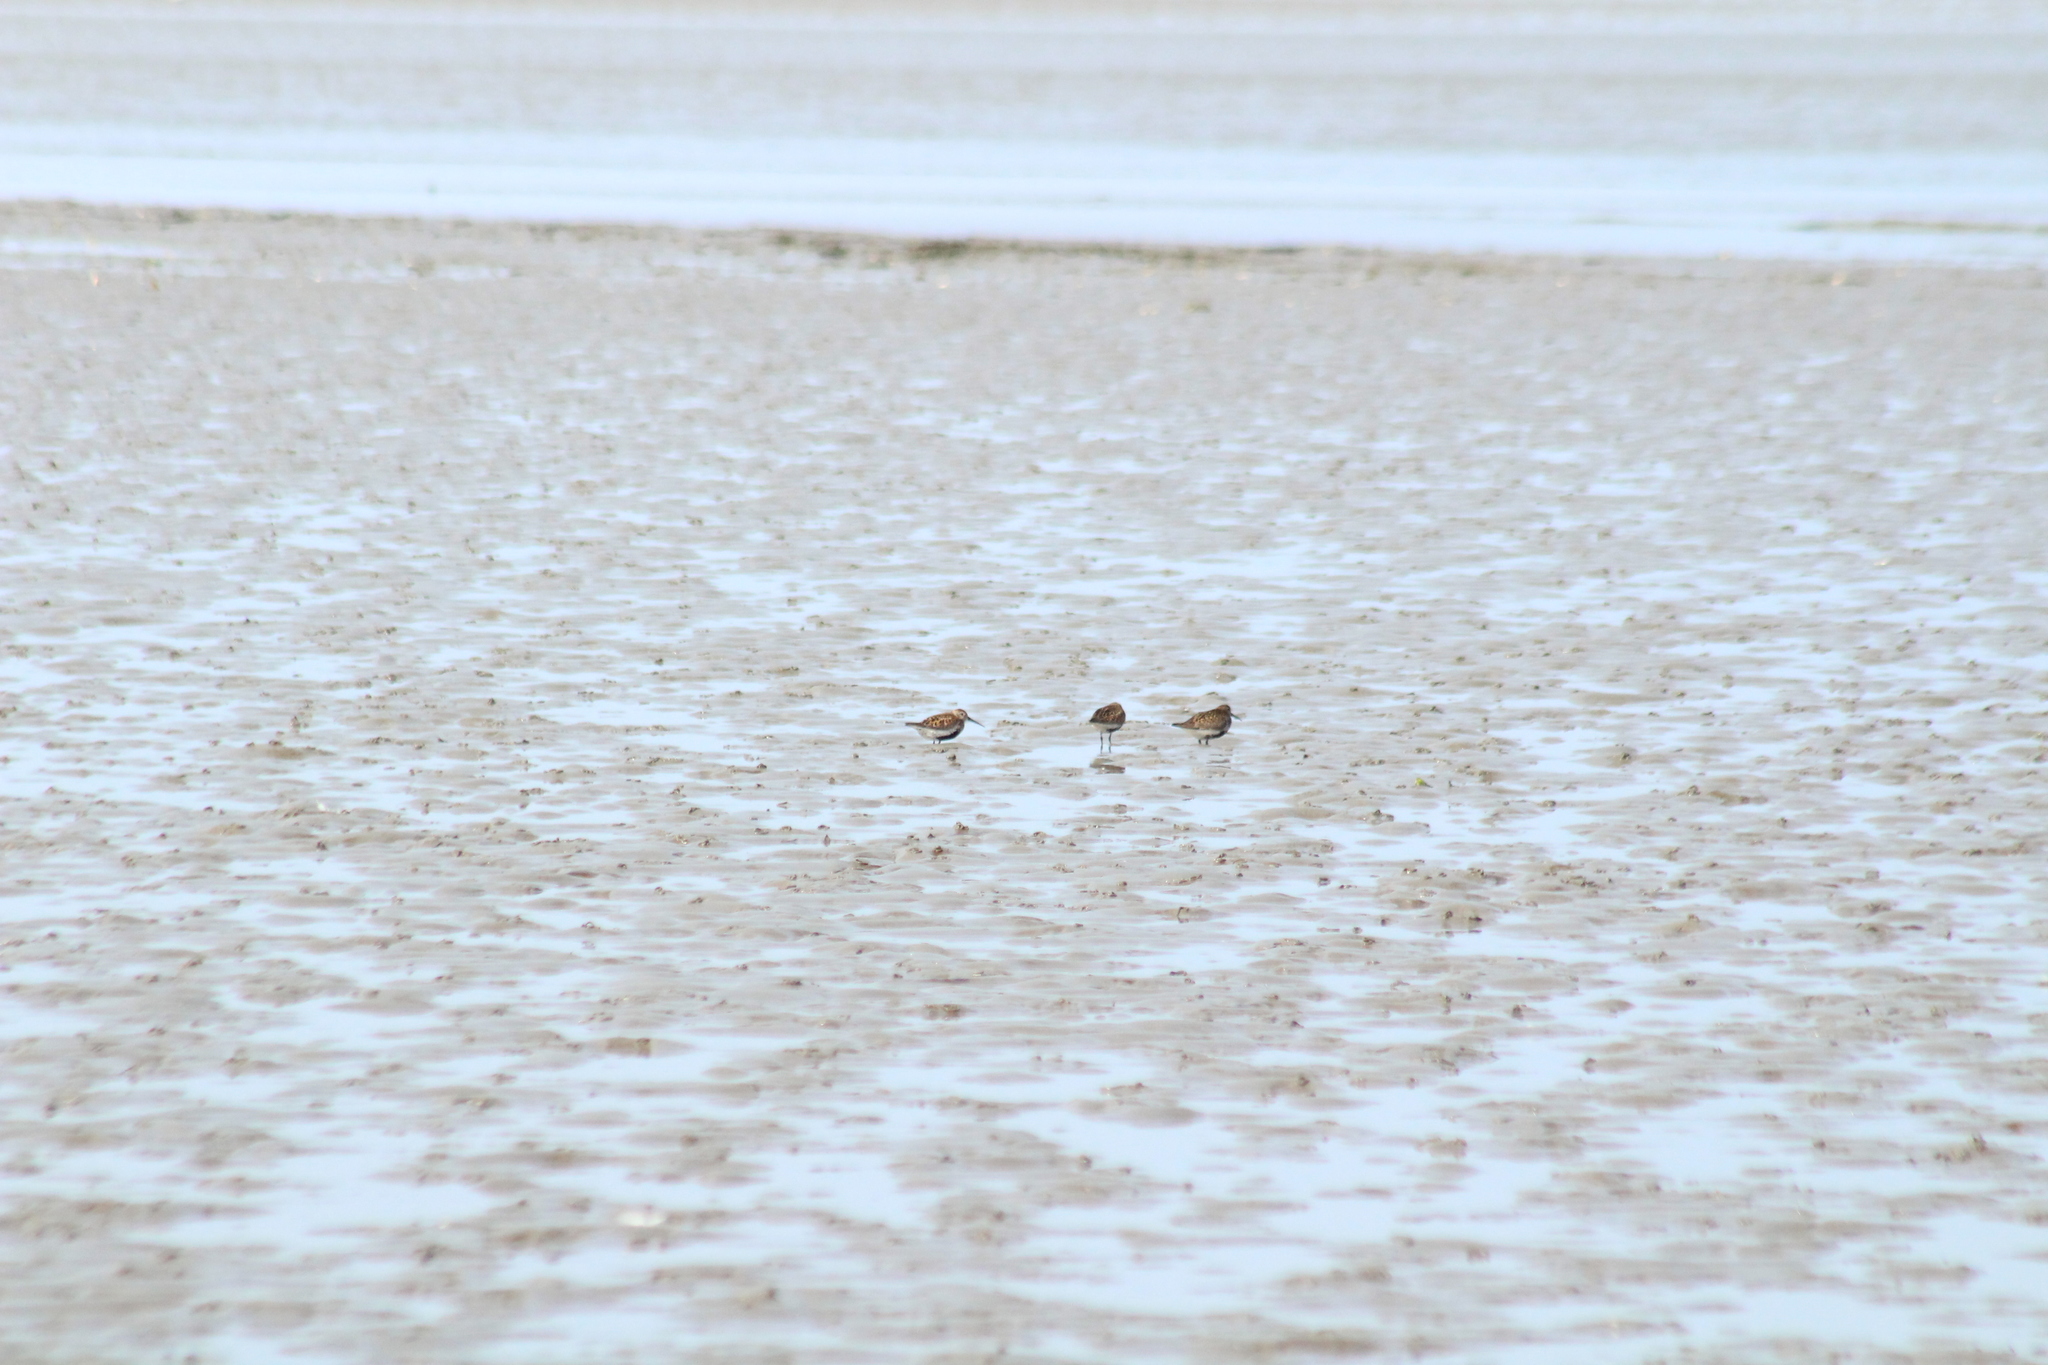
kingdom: Animalia
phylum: Chordata
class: Aves
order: Charadriiformes
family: Scolopacidae
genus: Calidris
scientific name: Calidris alpina
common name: Dunlin
